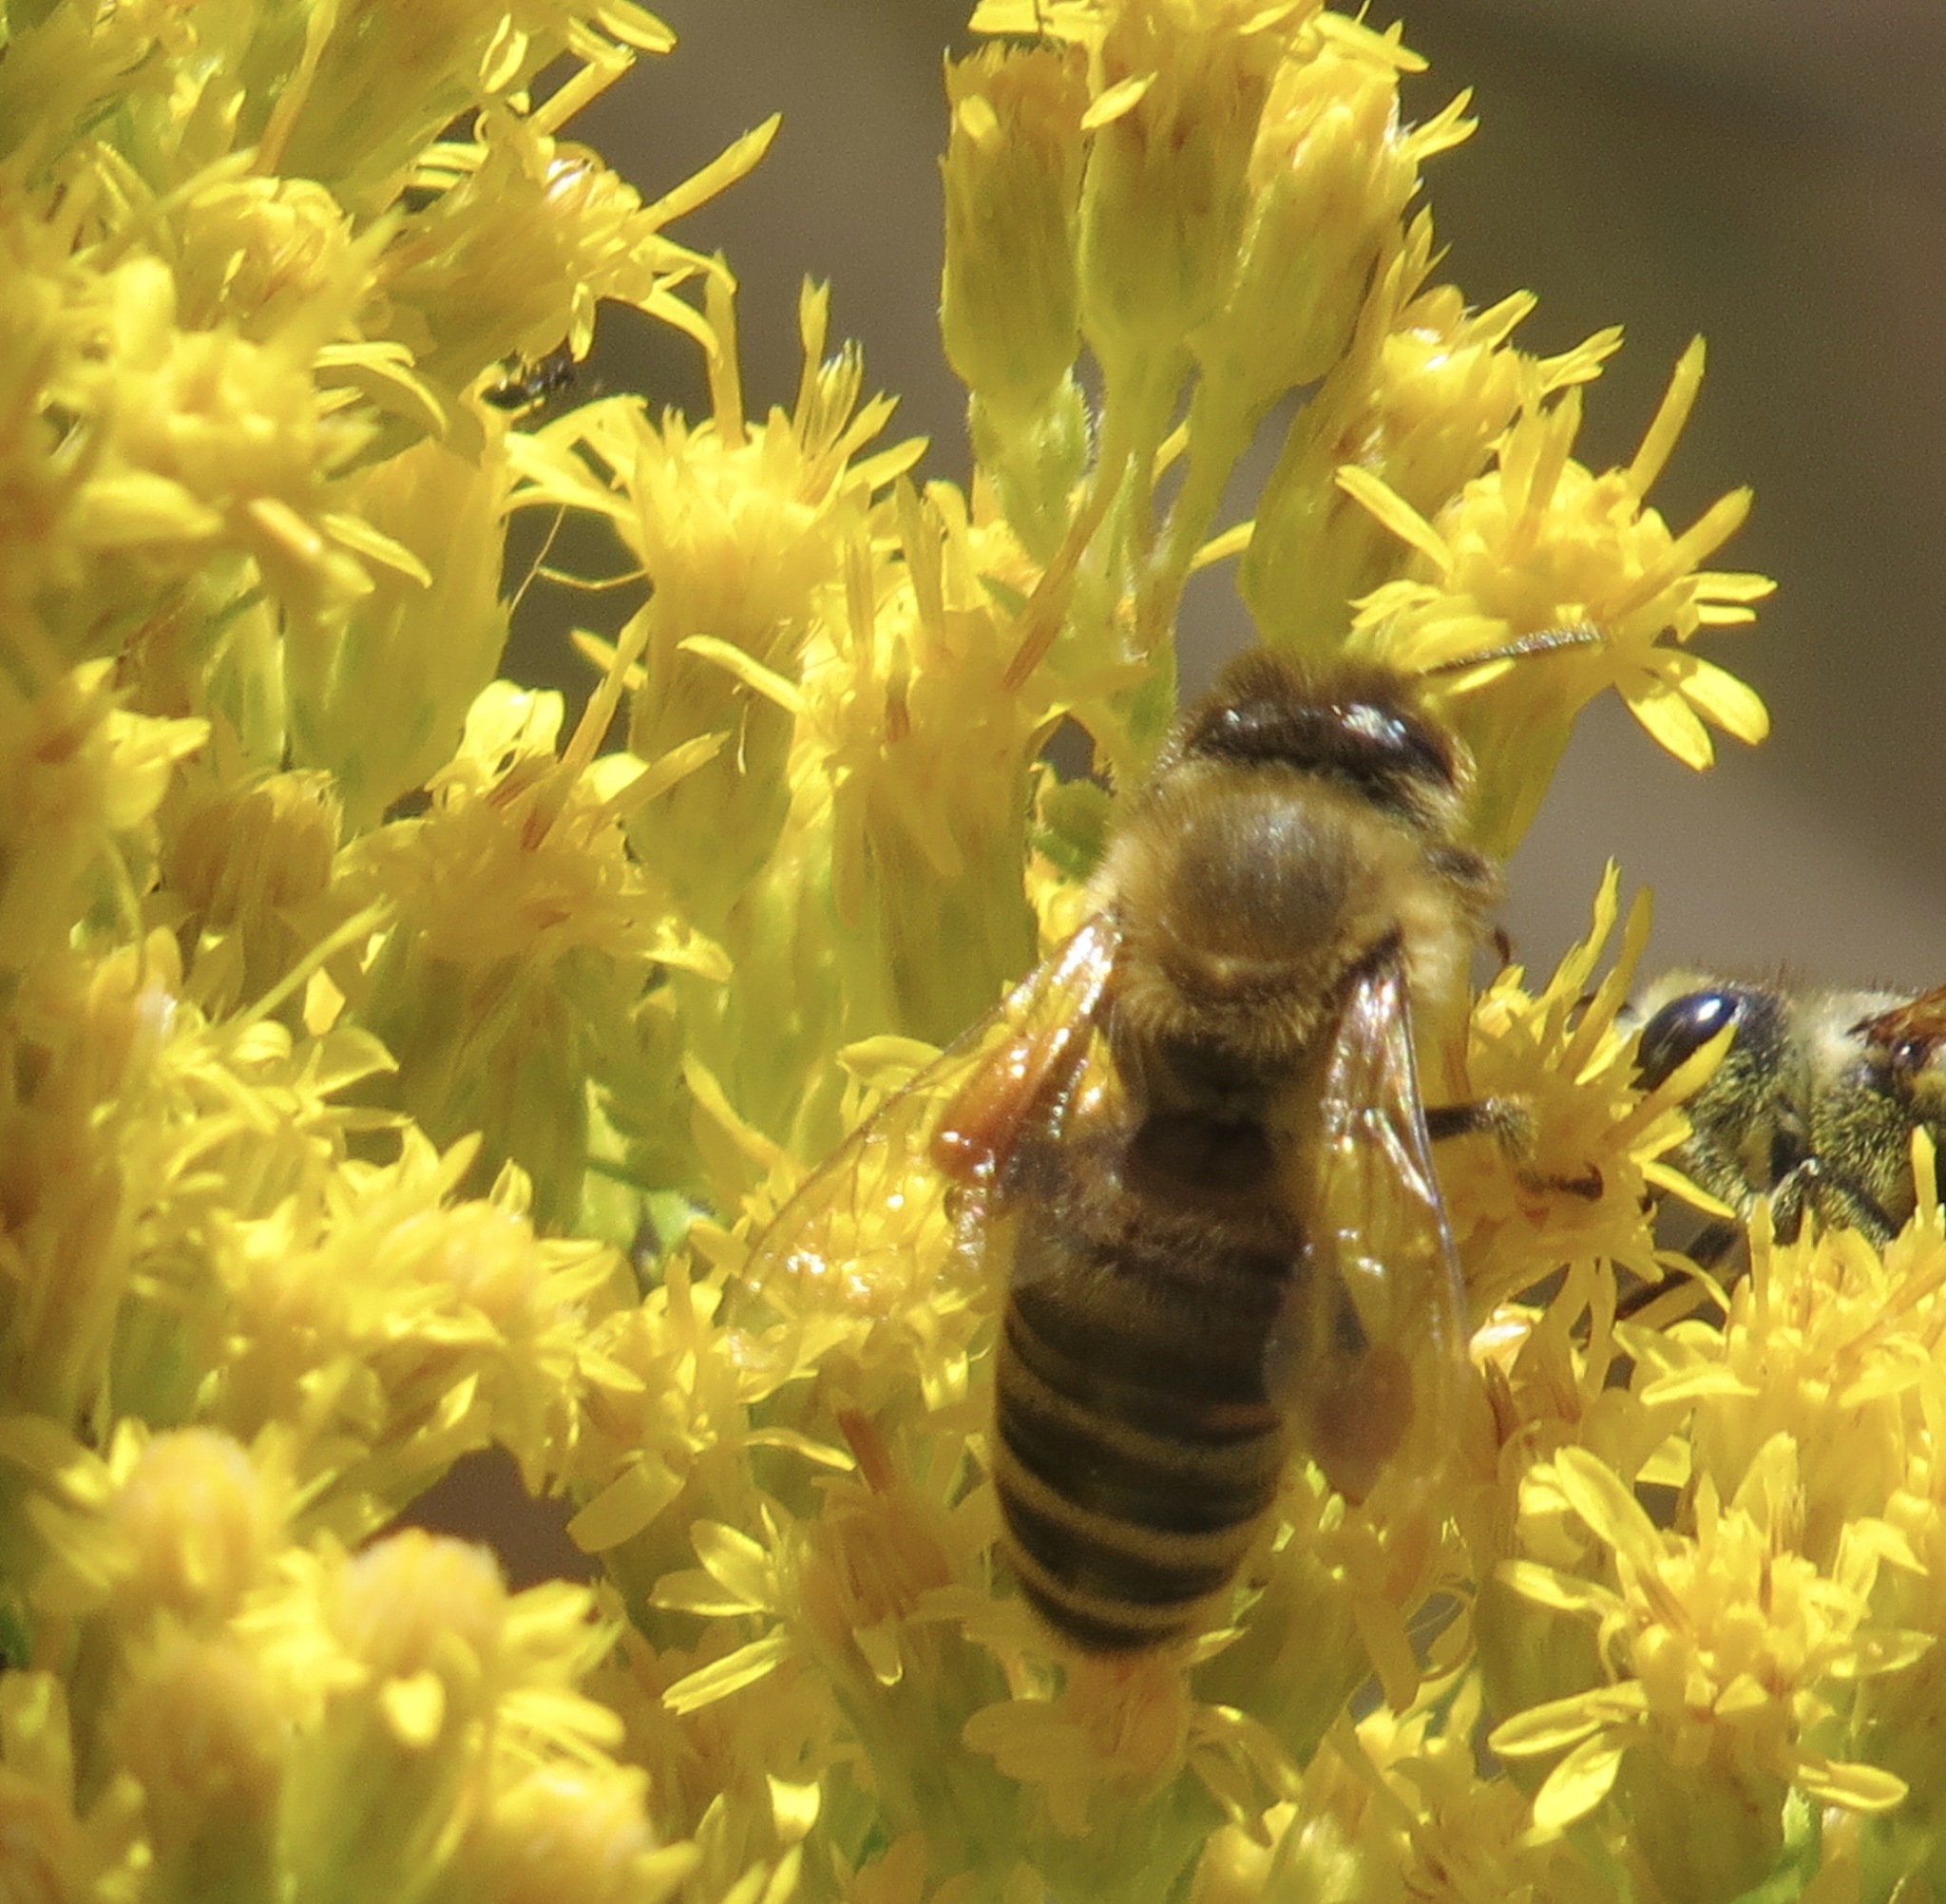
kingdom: Animalia
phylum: Arthropoda
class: Insecta
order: Hymenoptera
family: Apidae
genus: Apis
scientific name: Apis mellifera
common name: Honey bee
